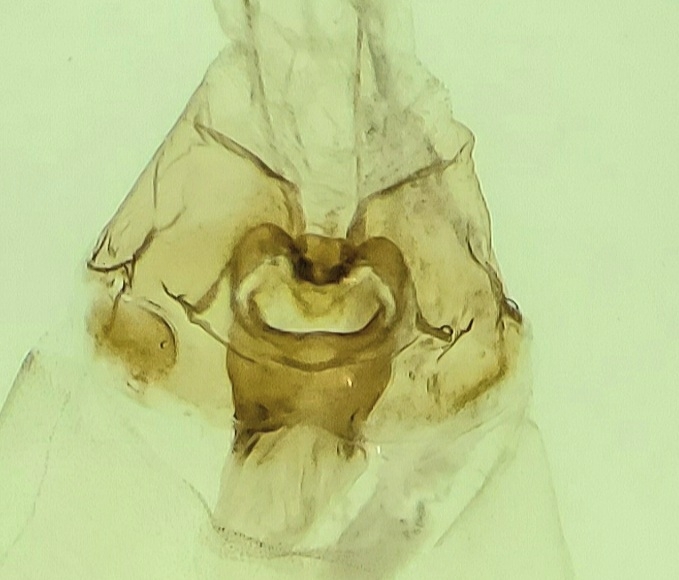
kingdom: Animalia
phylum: Arthropoda
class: Insecta
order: Lepidoptera
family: Geometridae
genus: Xanthotype
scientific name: Xanthotype rufaria
